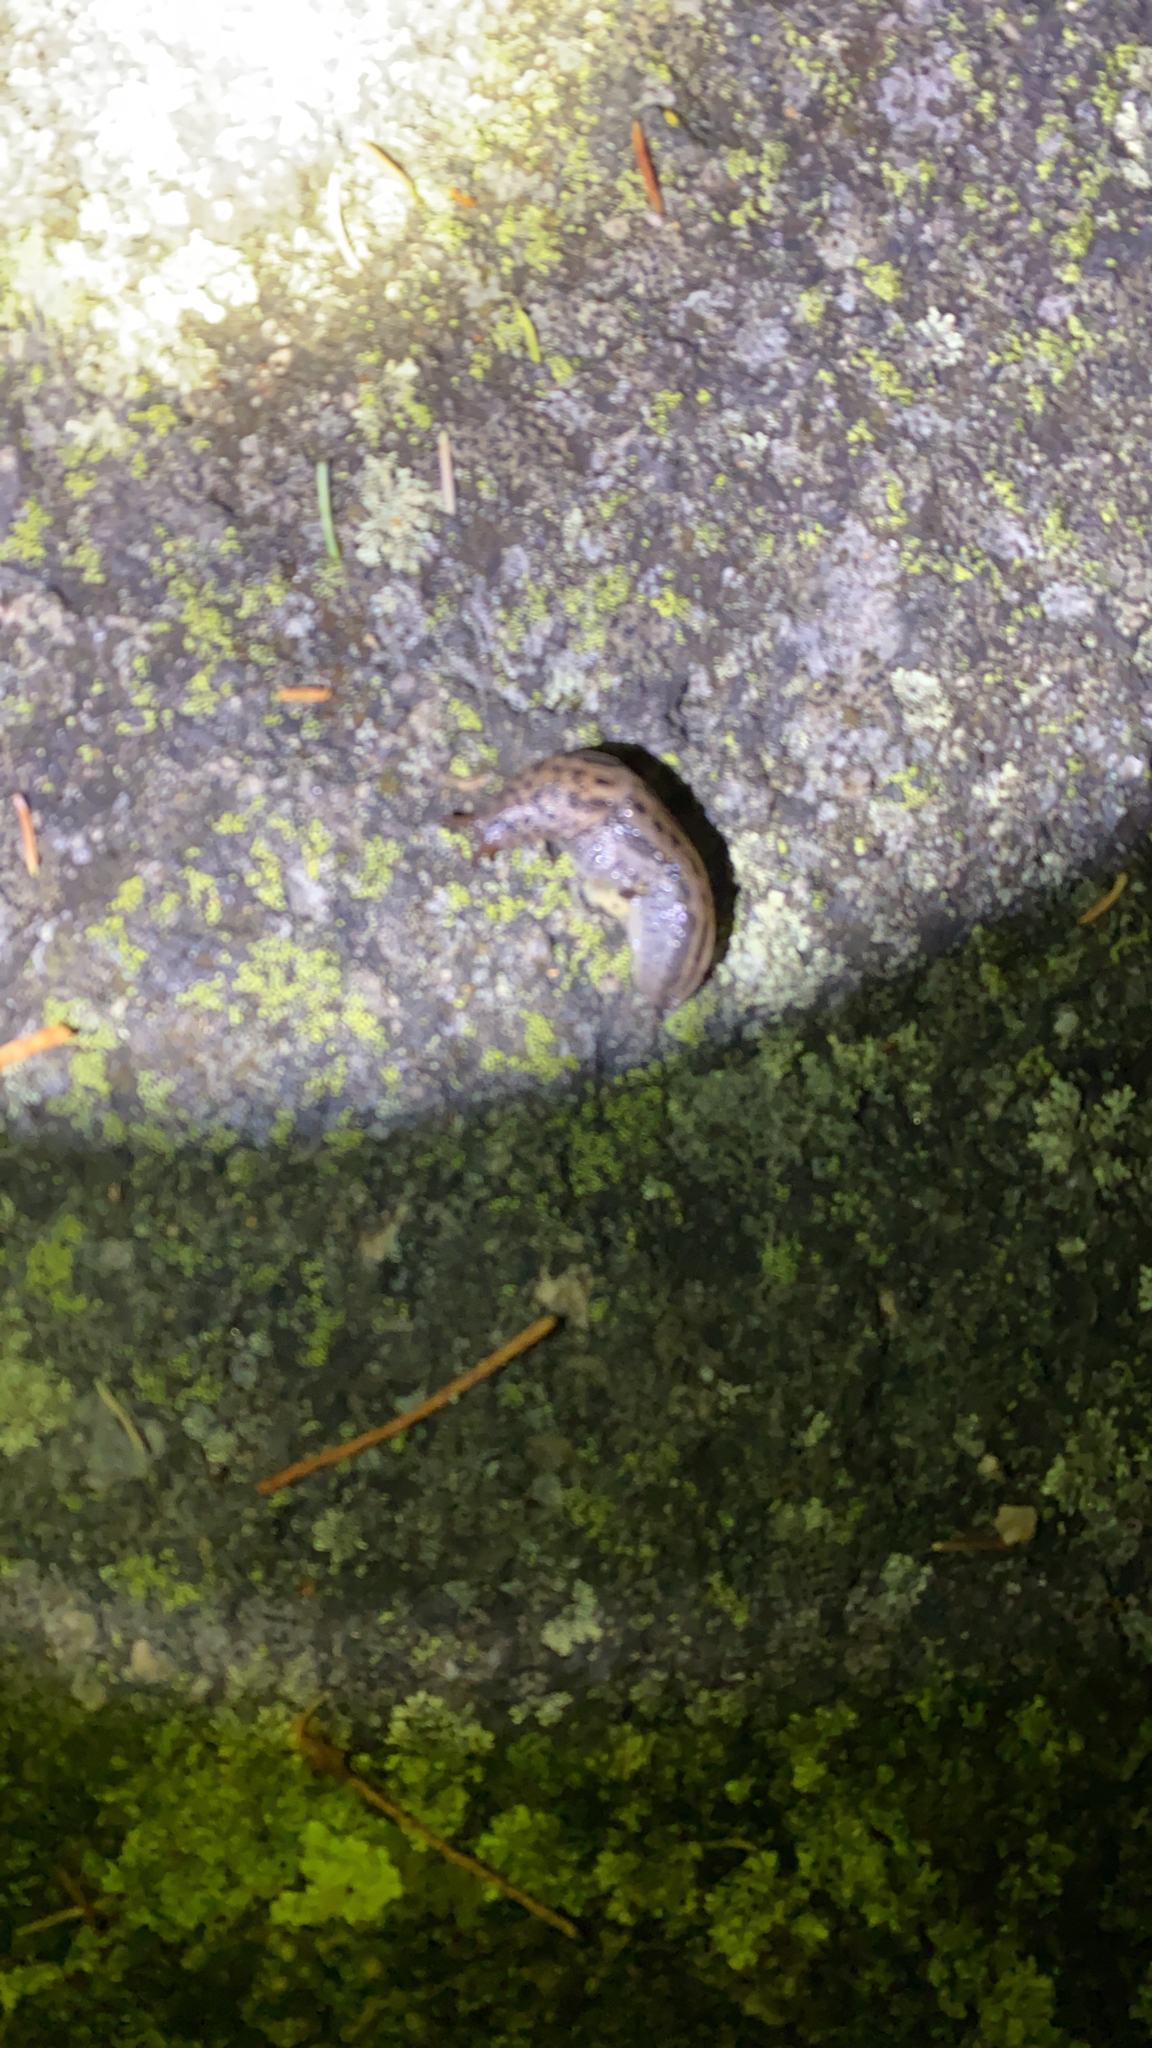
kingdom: Animalia
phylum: Mollusca
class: Gastropoda
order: Stylommatophora
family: Limacidae
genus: Limax
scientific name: Limax maximus
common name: Great grey slug
